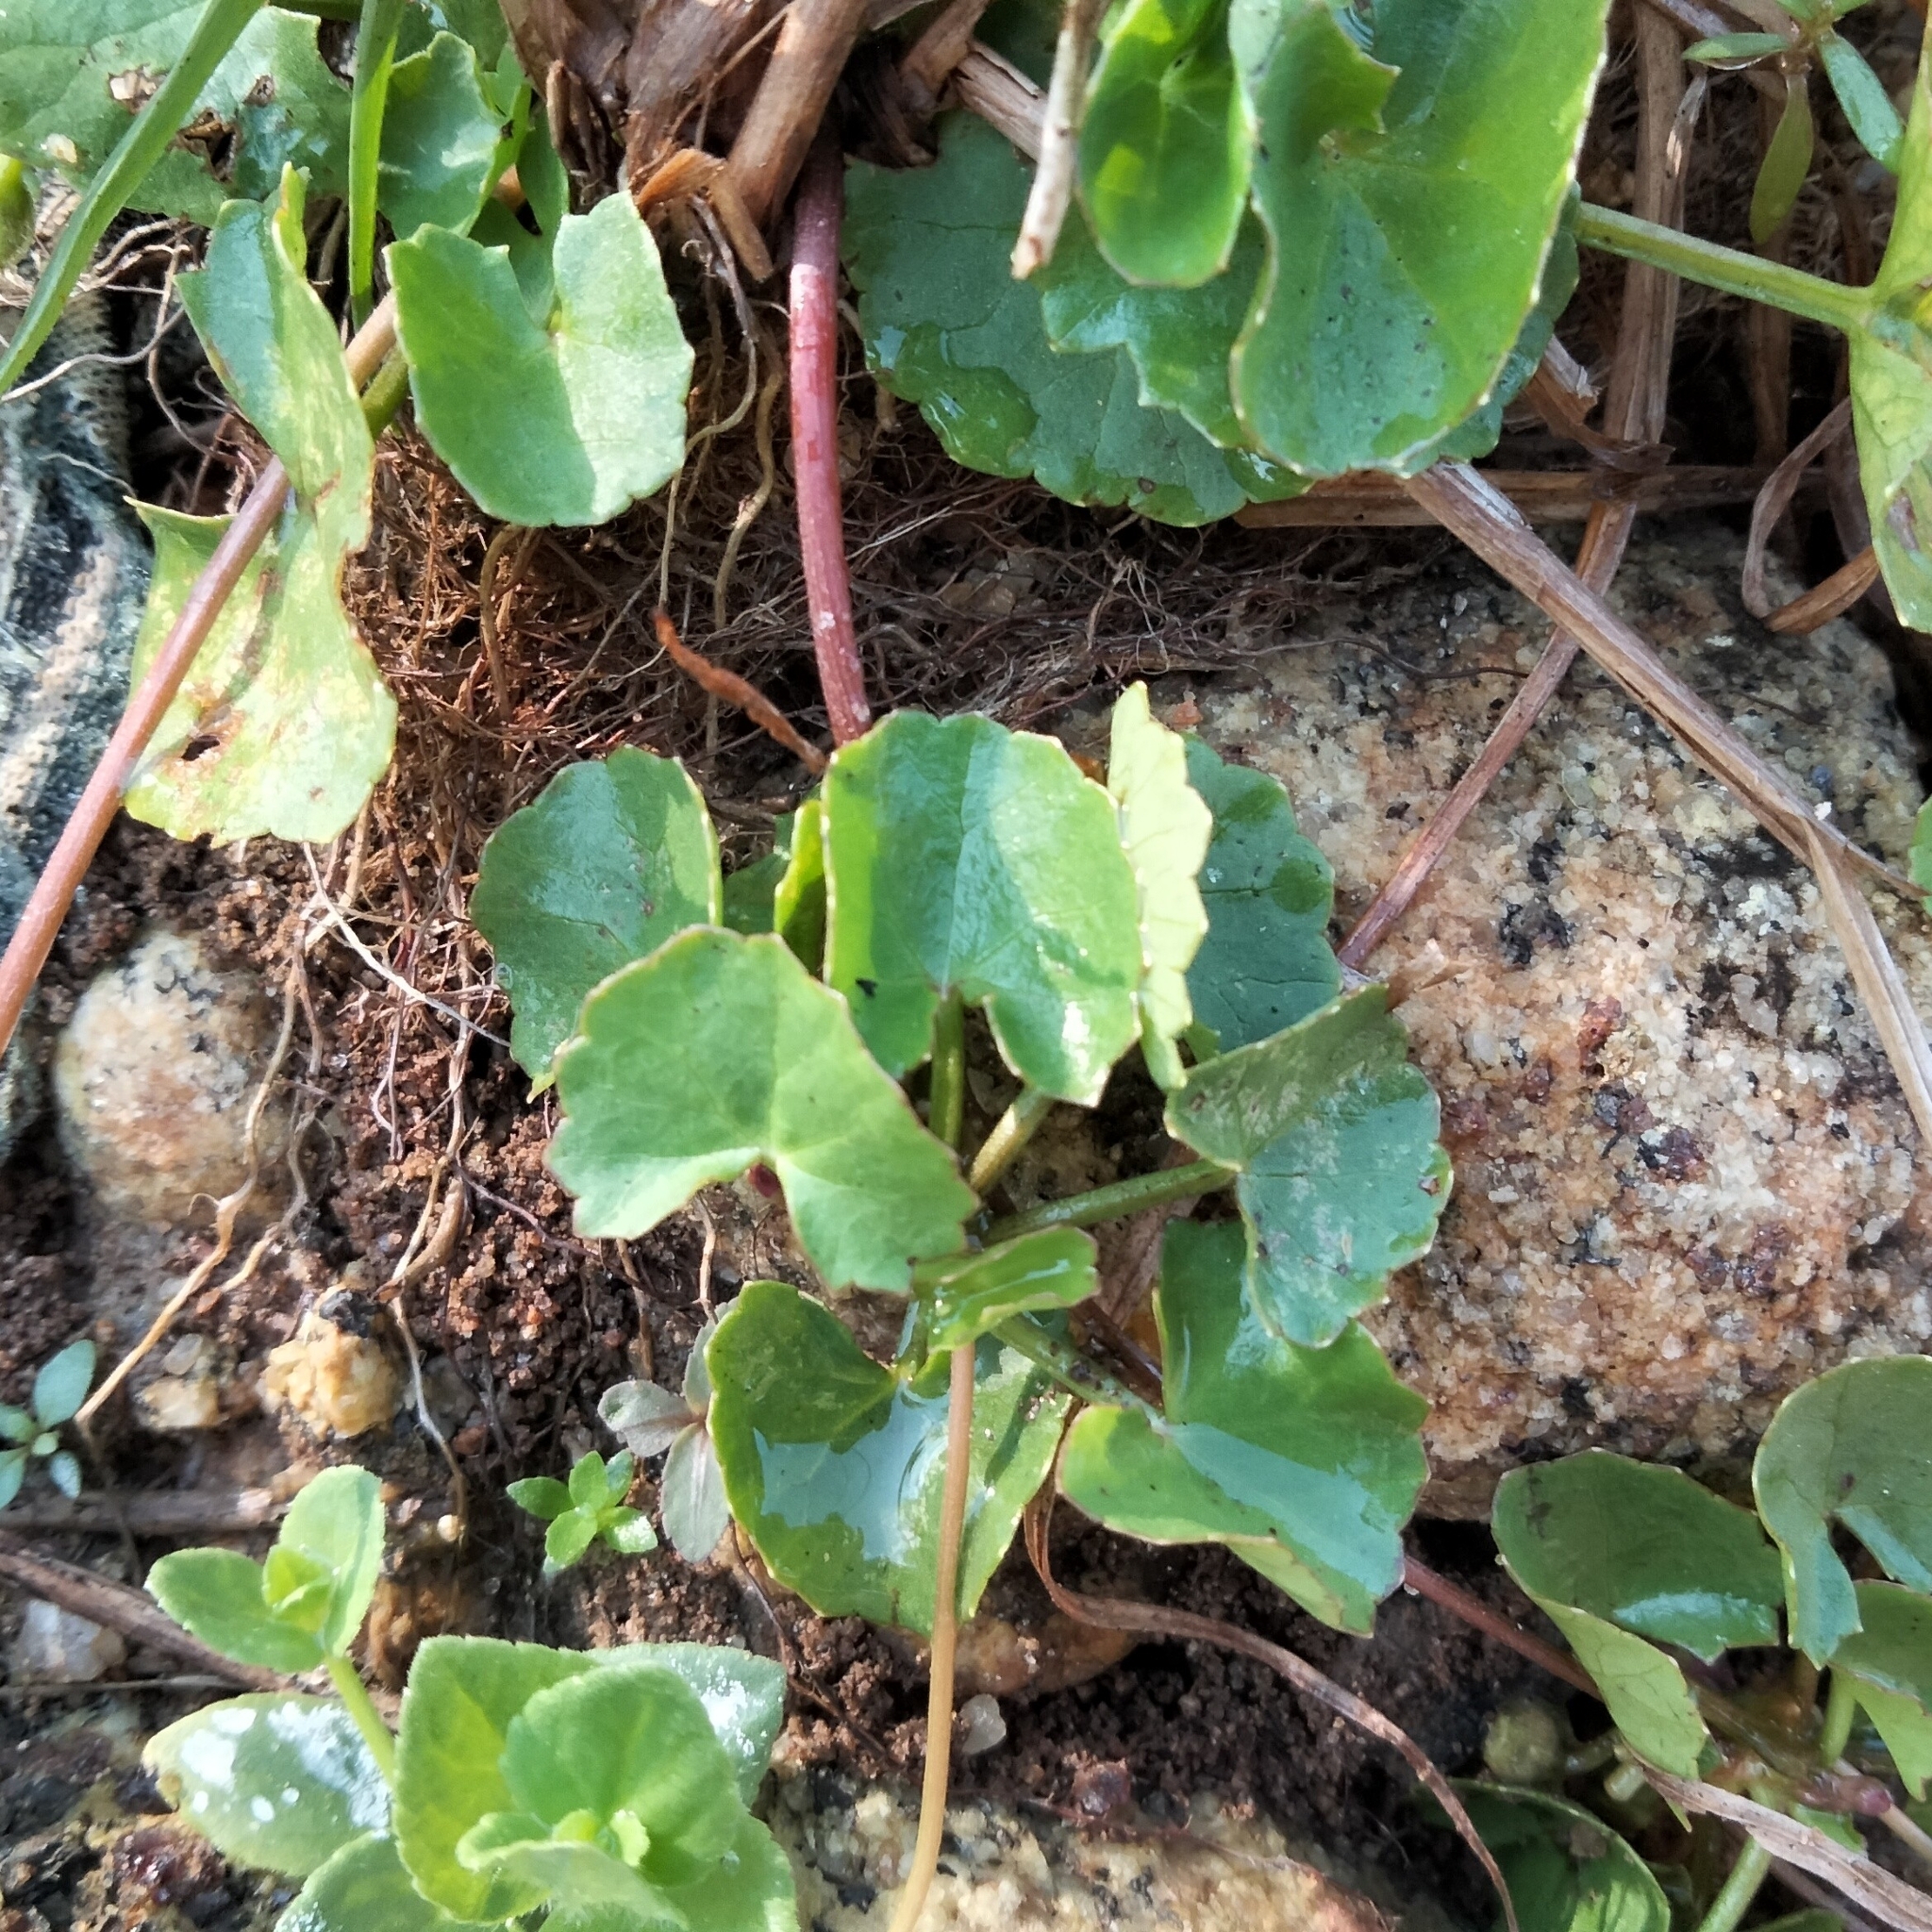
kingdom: Plantae
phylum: Tracheophyta
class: Magnoliopsida
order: Apiales
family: Apiaceae
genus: Centella
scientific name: Centella asiatica
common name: Spadeleaf
